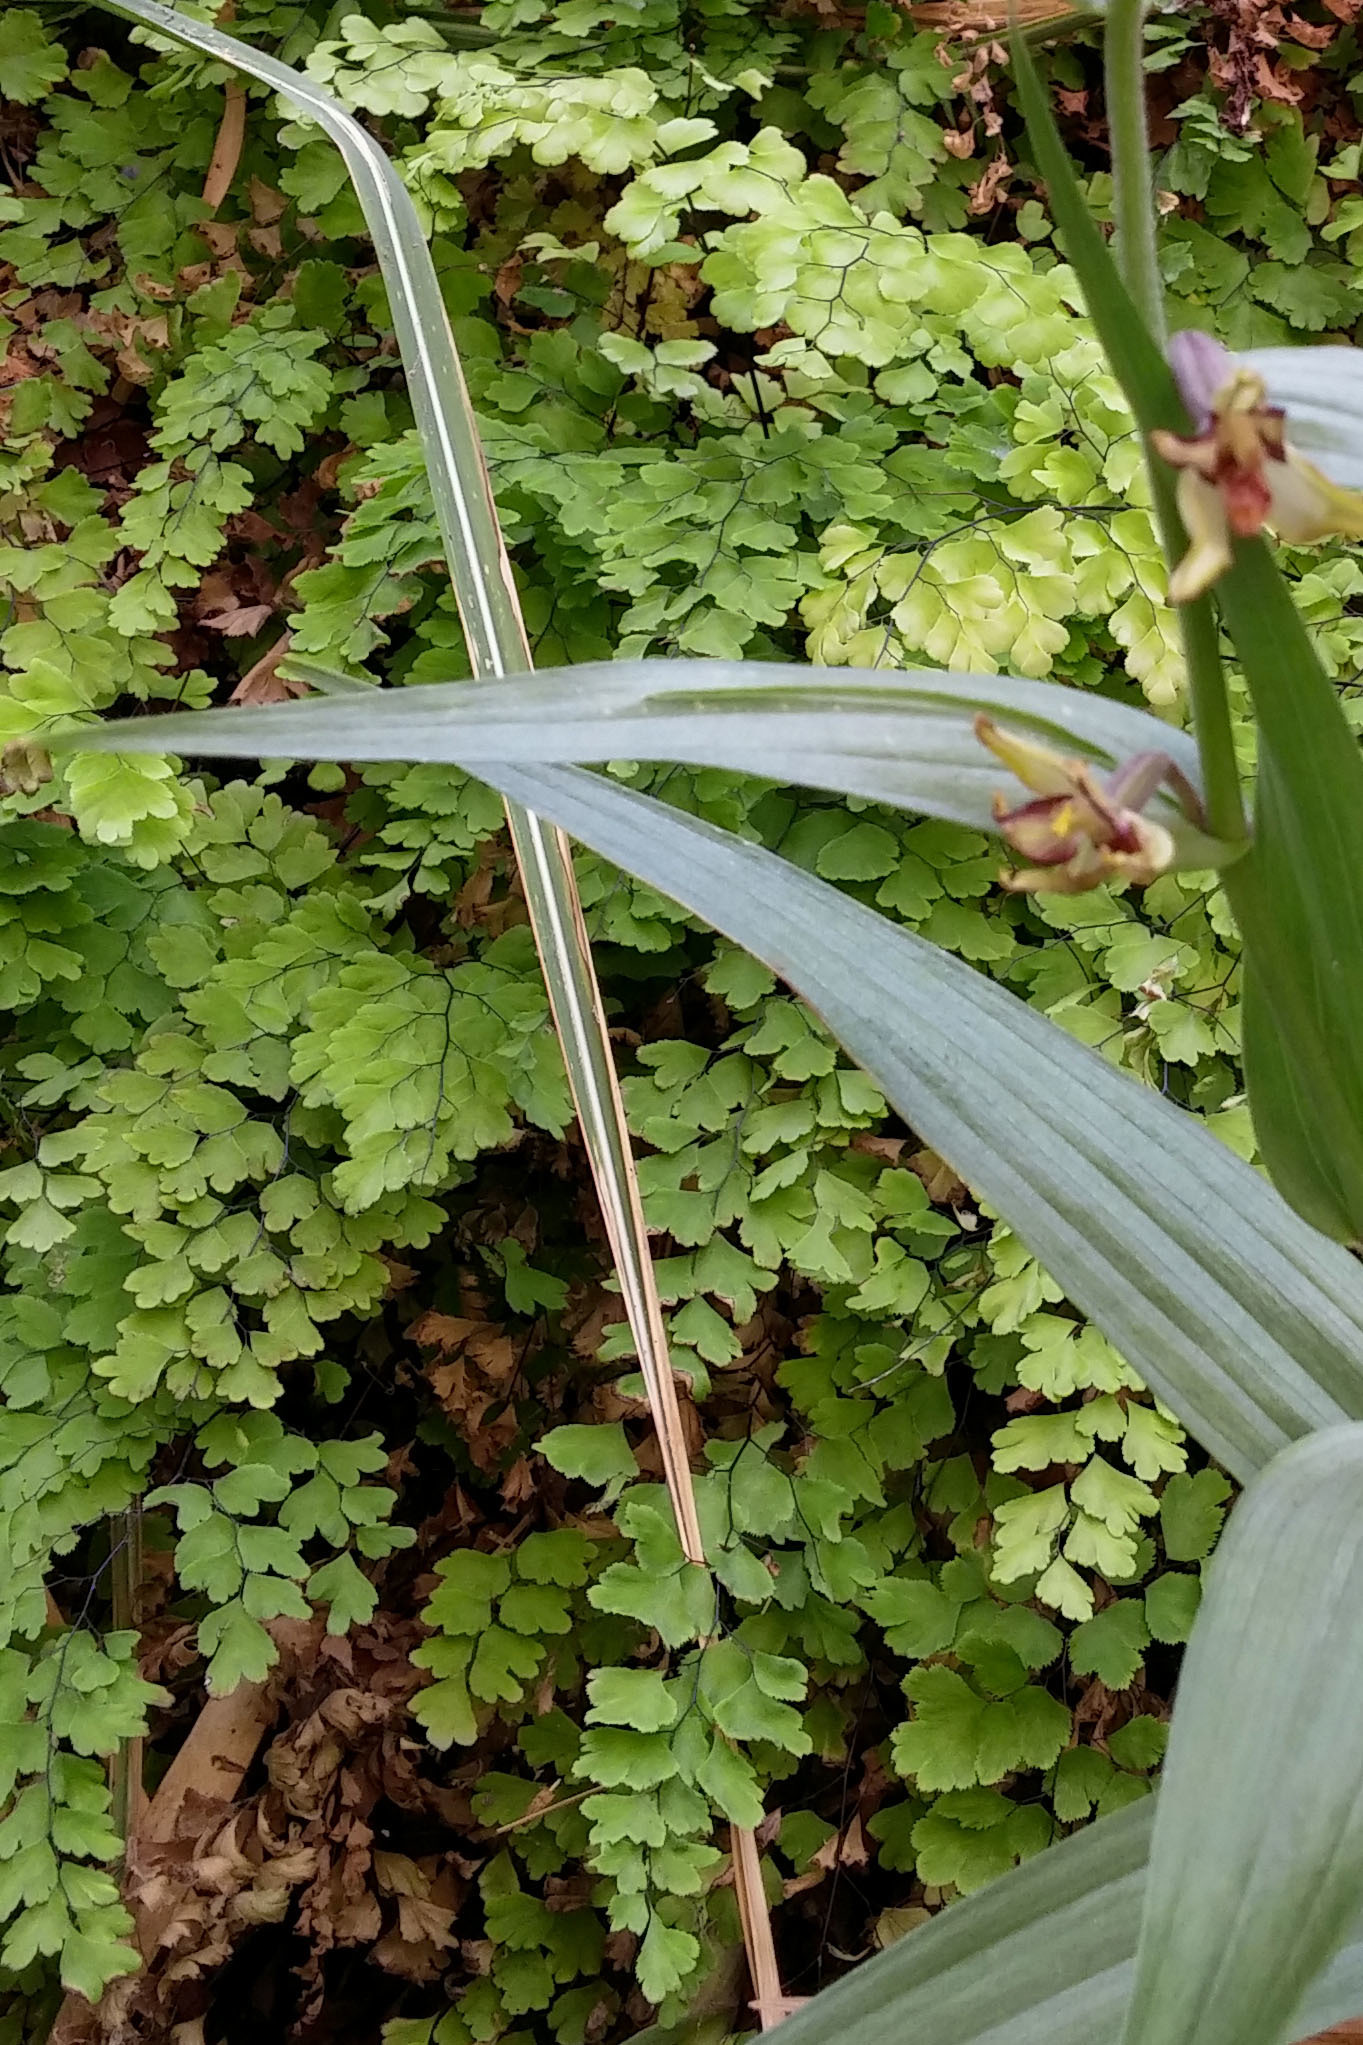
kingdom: Plantae
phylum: Tracheophyta
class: Polypodiopsida
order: Polypodiales
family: Pteridaceae
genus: Adiantum
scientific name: Adiantum capillus-veneris
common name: Maidenhair fern
